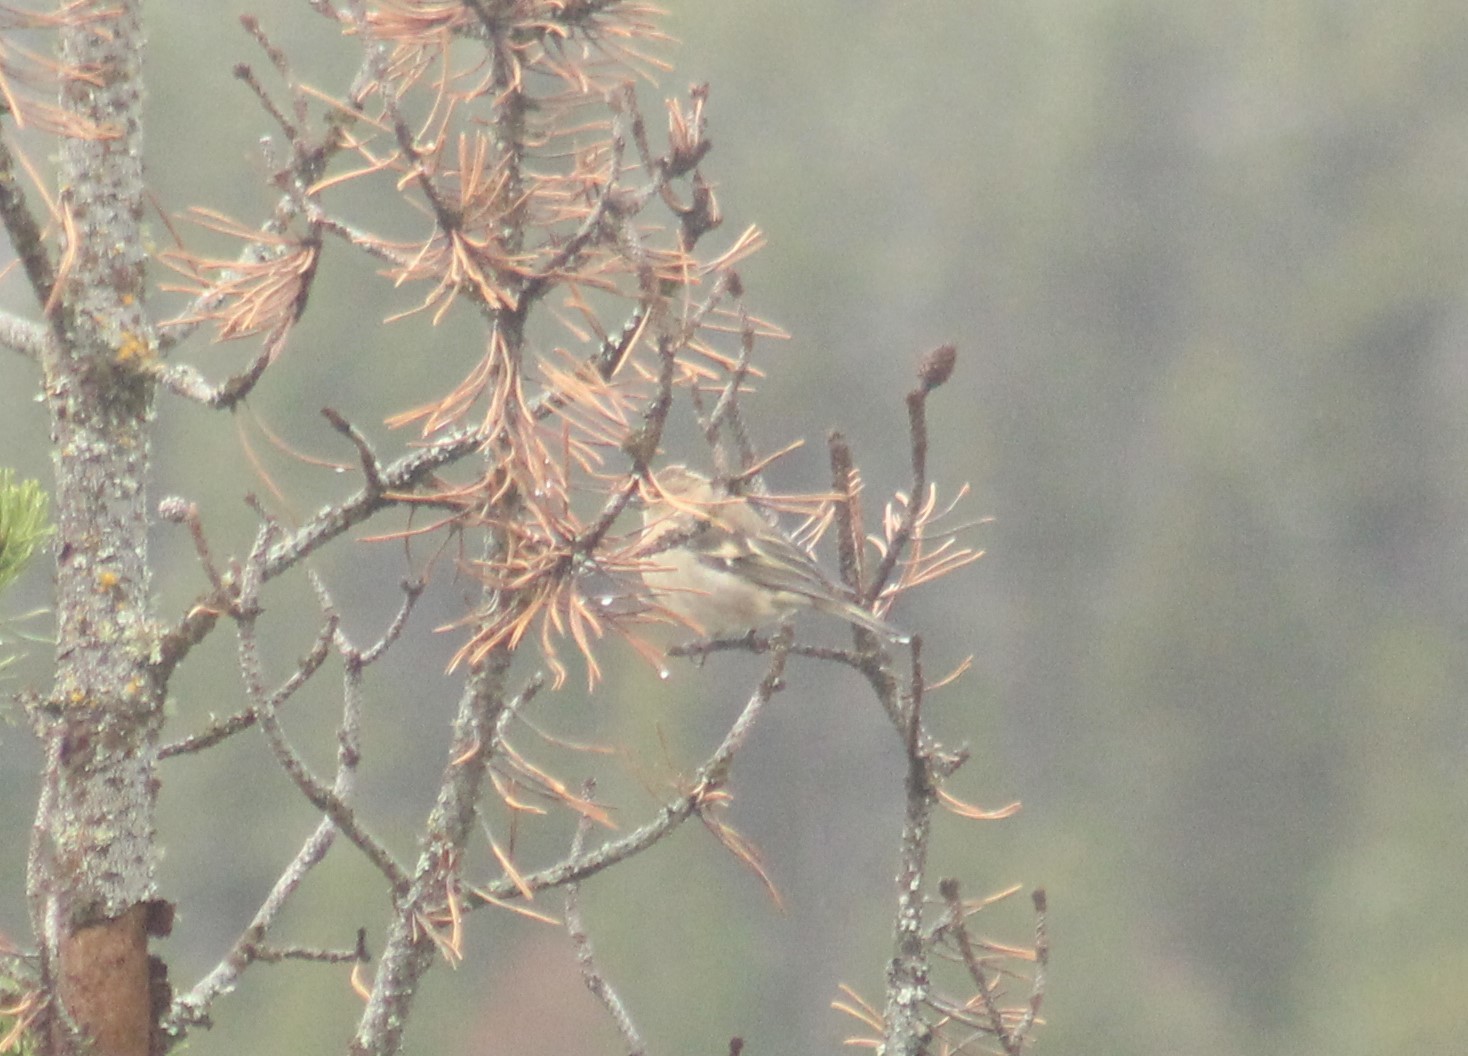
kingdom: Animalia
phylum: Chordata
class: Aves
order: Passeriformes
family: Fringillidae
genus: Fringilla
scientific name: Fringilla coelebs
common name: Common chaffinch
